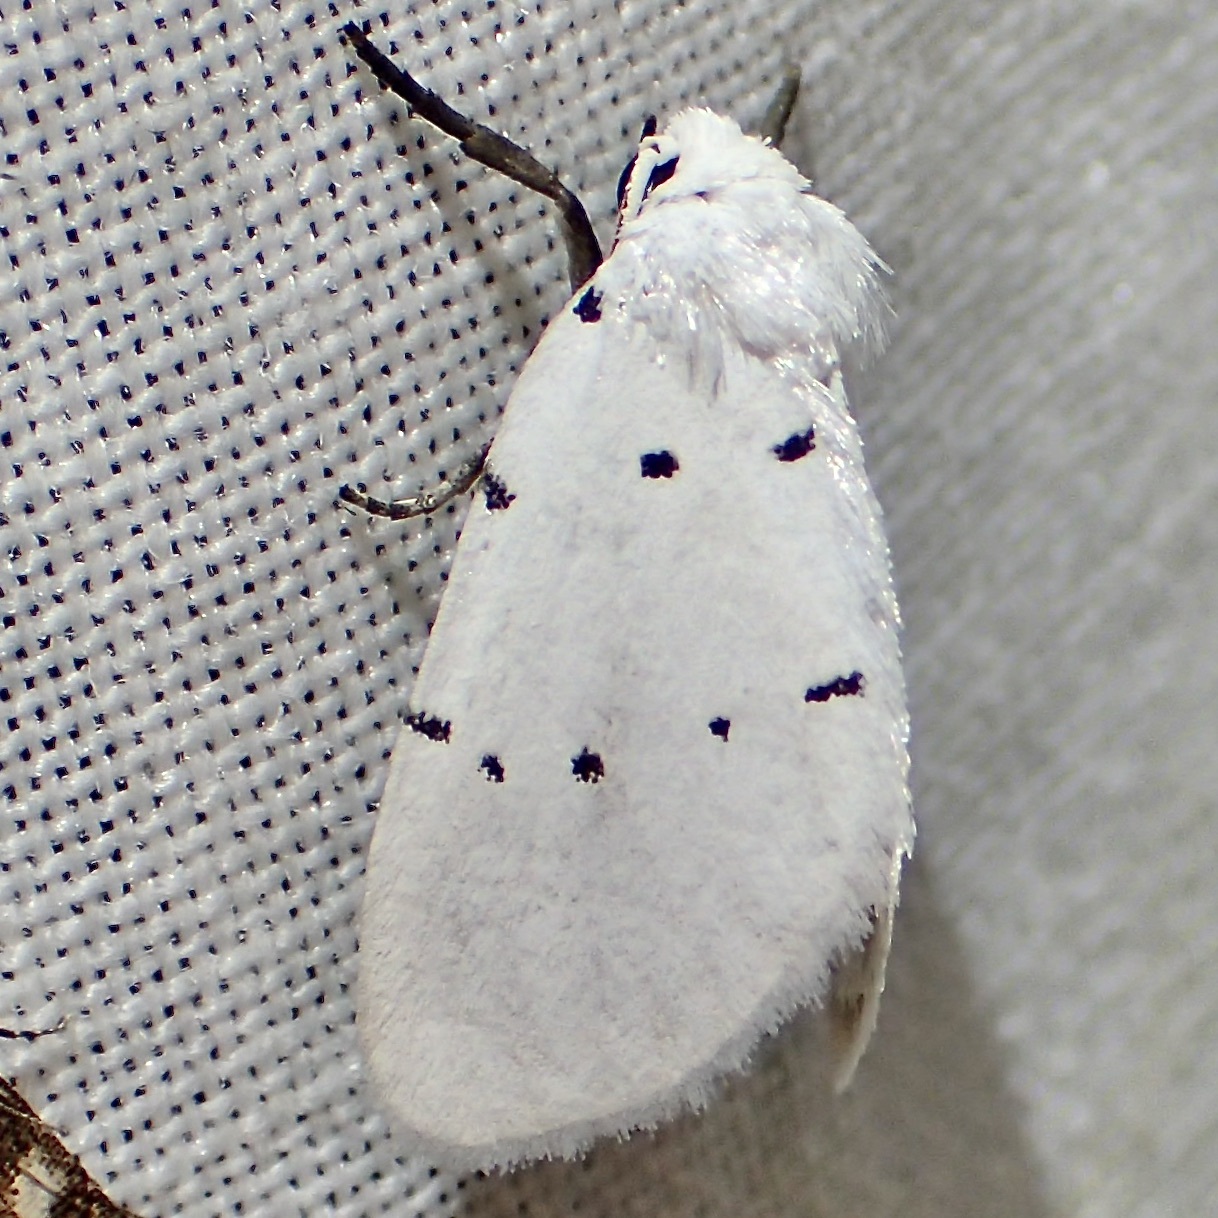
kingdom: Animalia
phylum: Arthropoda
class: Insecta
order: Lepidoptera
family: Noctuidae
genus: Homolagoa
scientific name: Homolagoa grotelliformis
